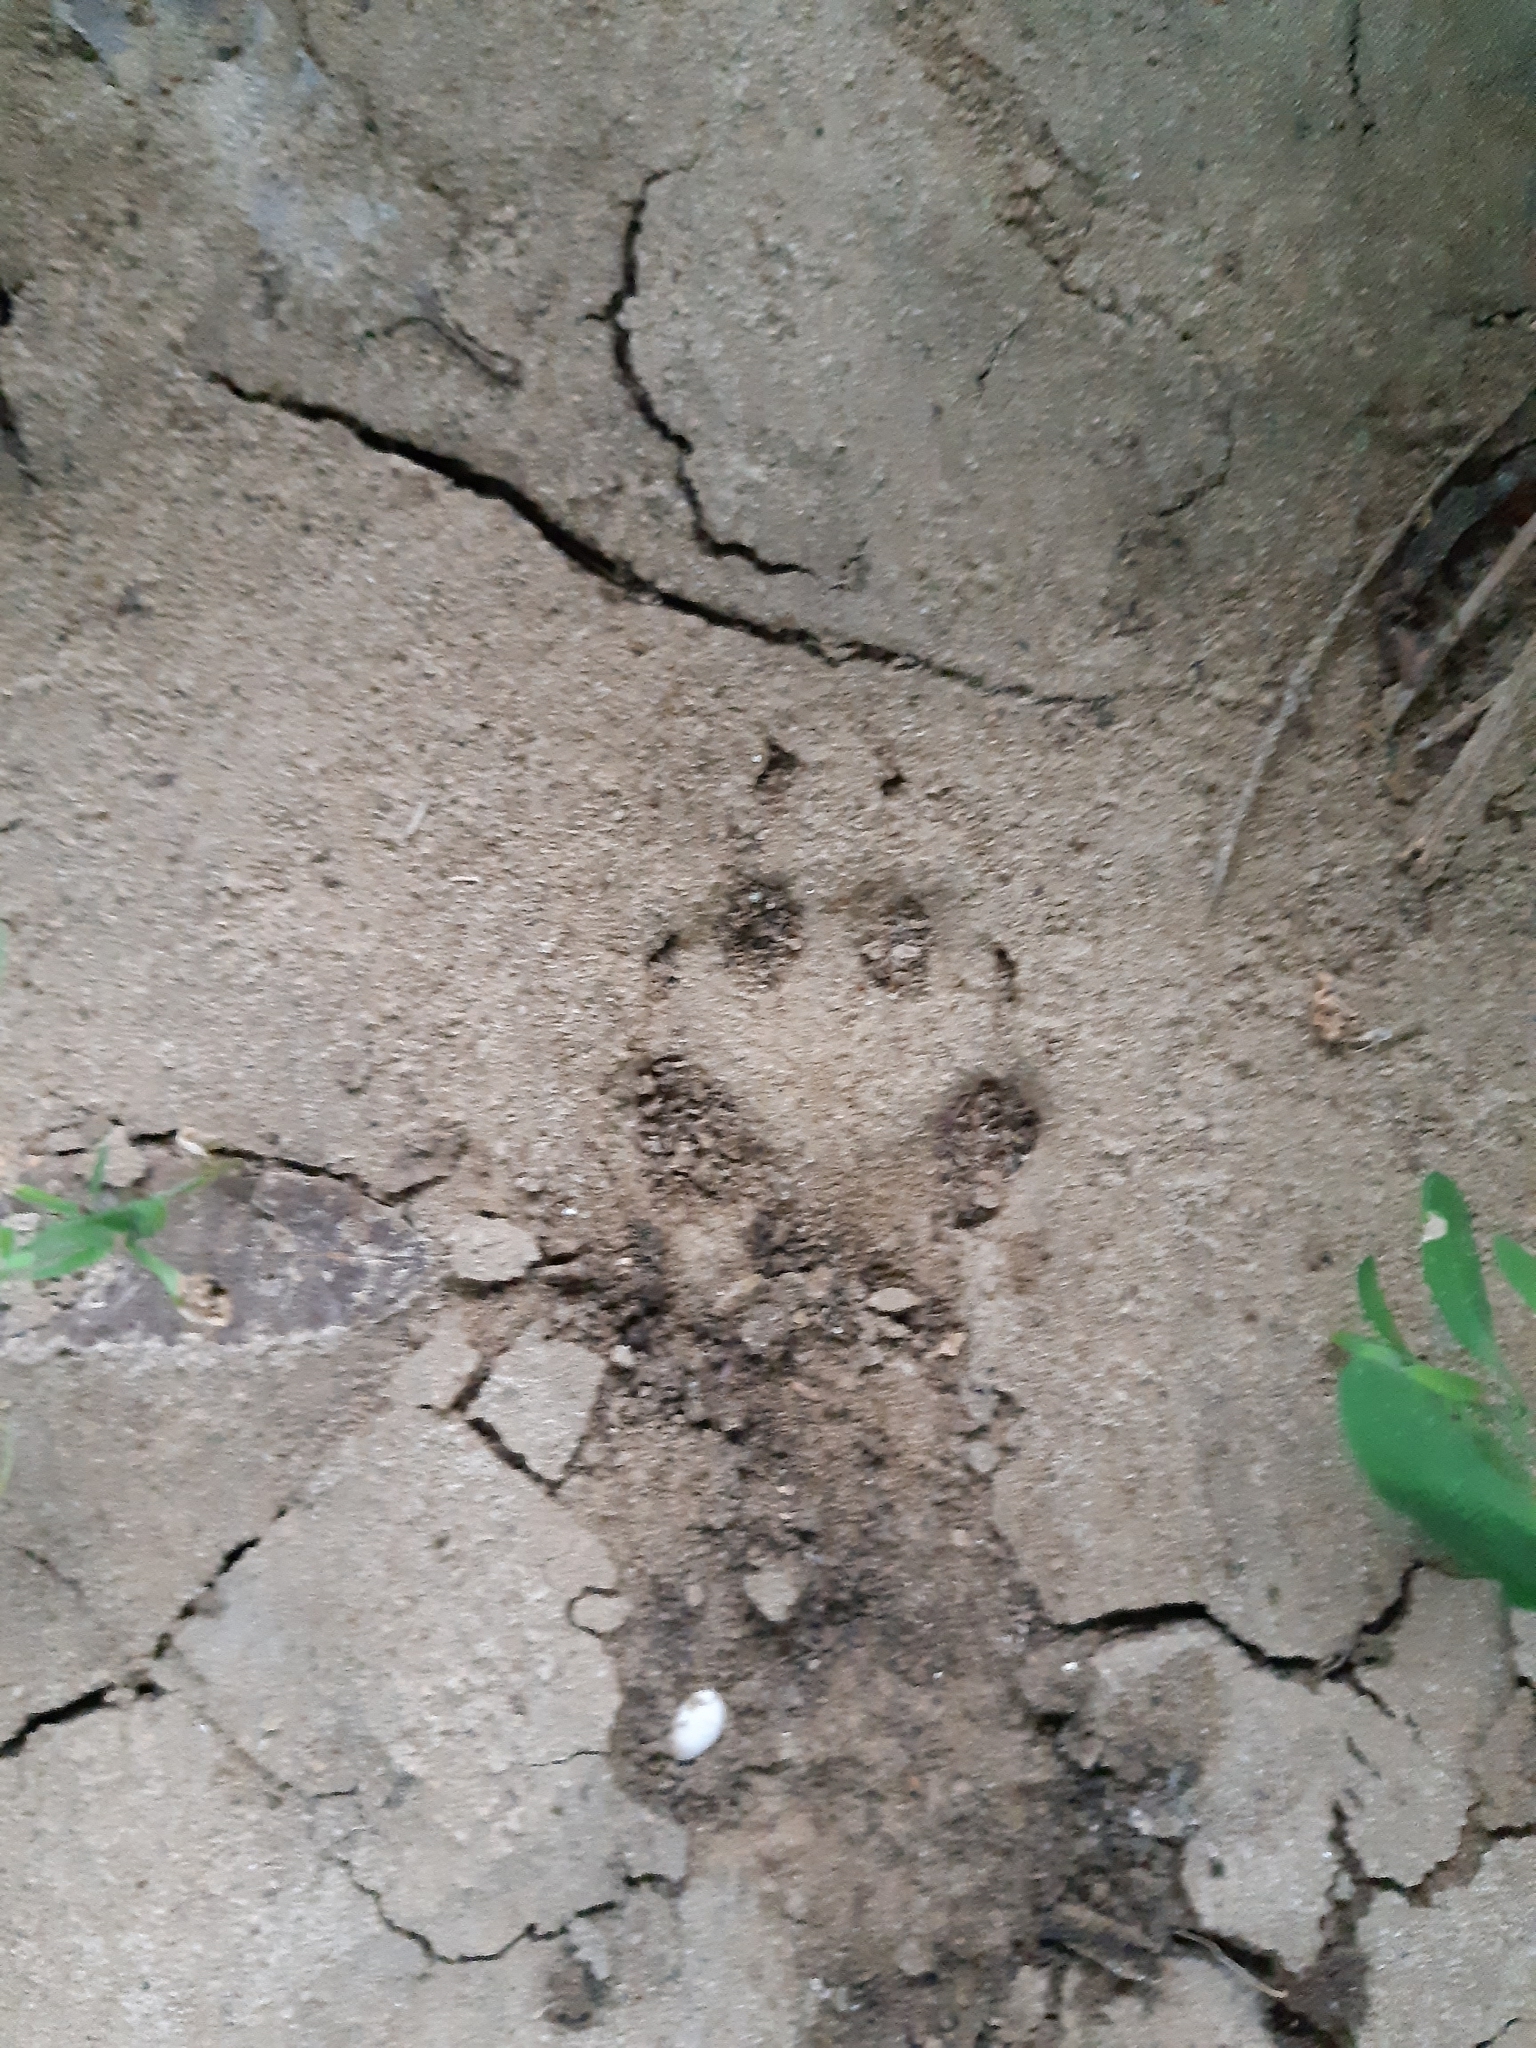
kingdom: Animalia
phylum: Chordata
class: Mammalia
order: Carnivora
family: Canidae
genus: Vulpes
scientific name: Vulpes vulpes
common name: Red fox
